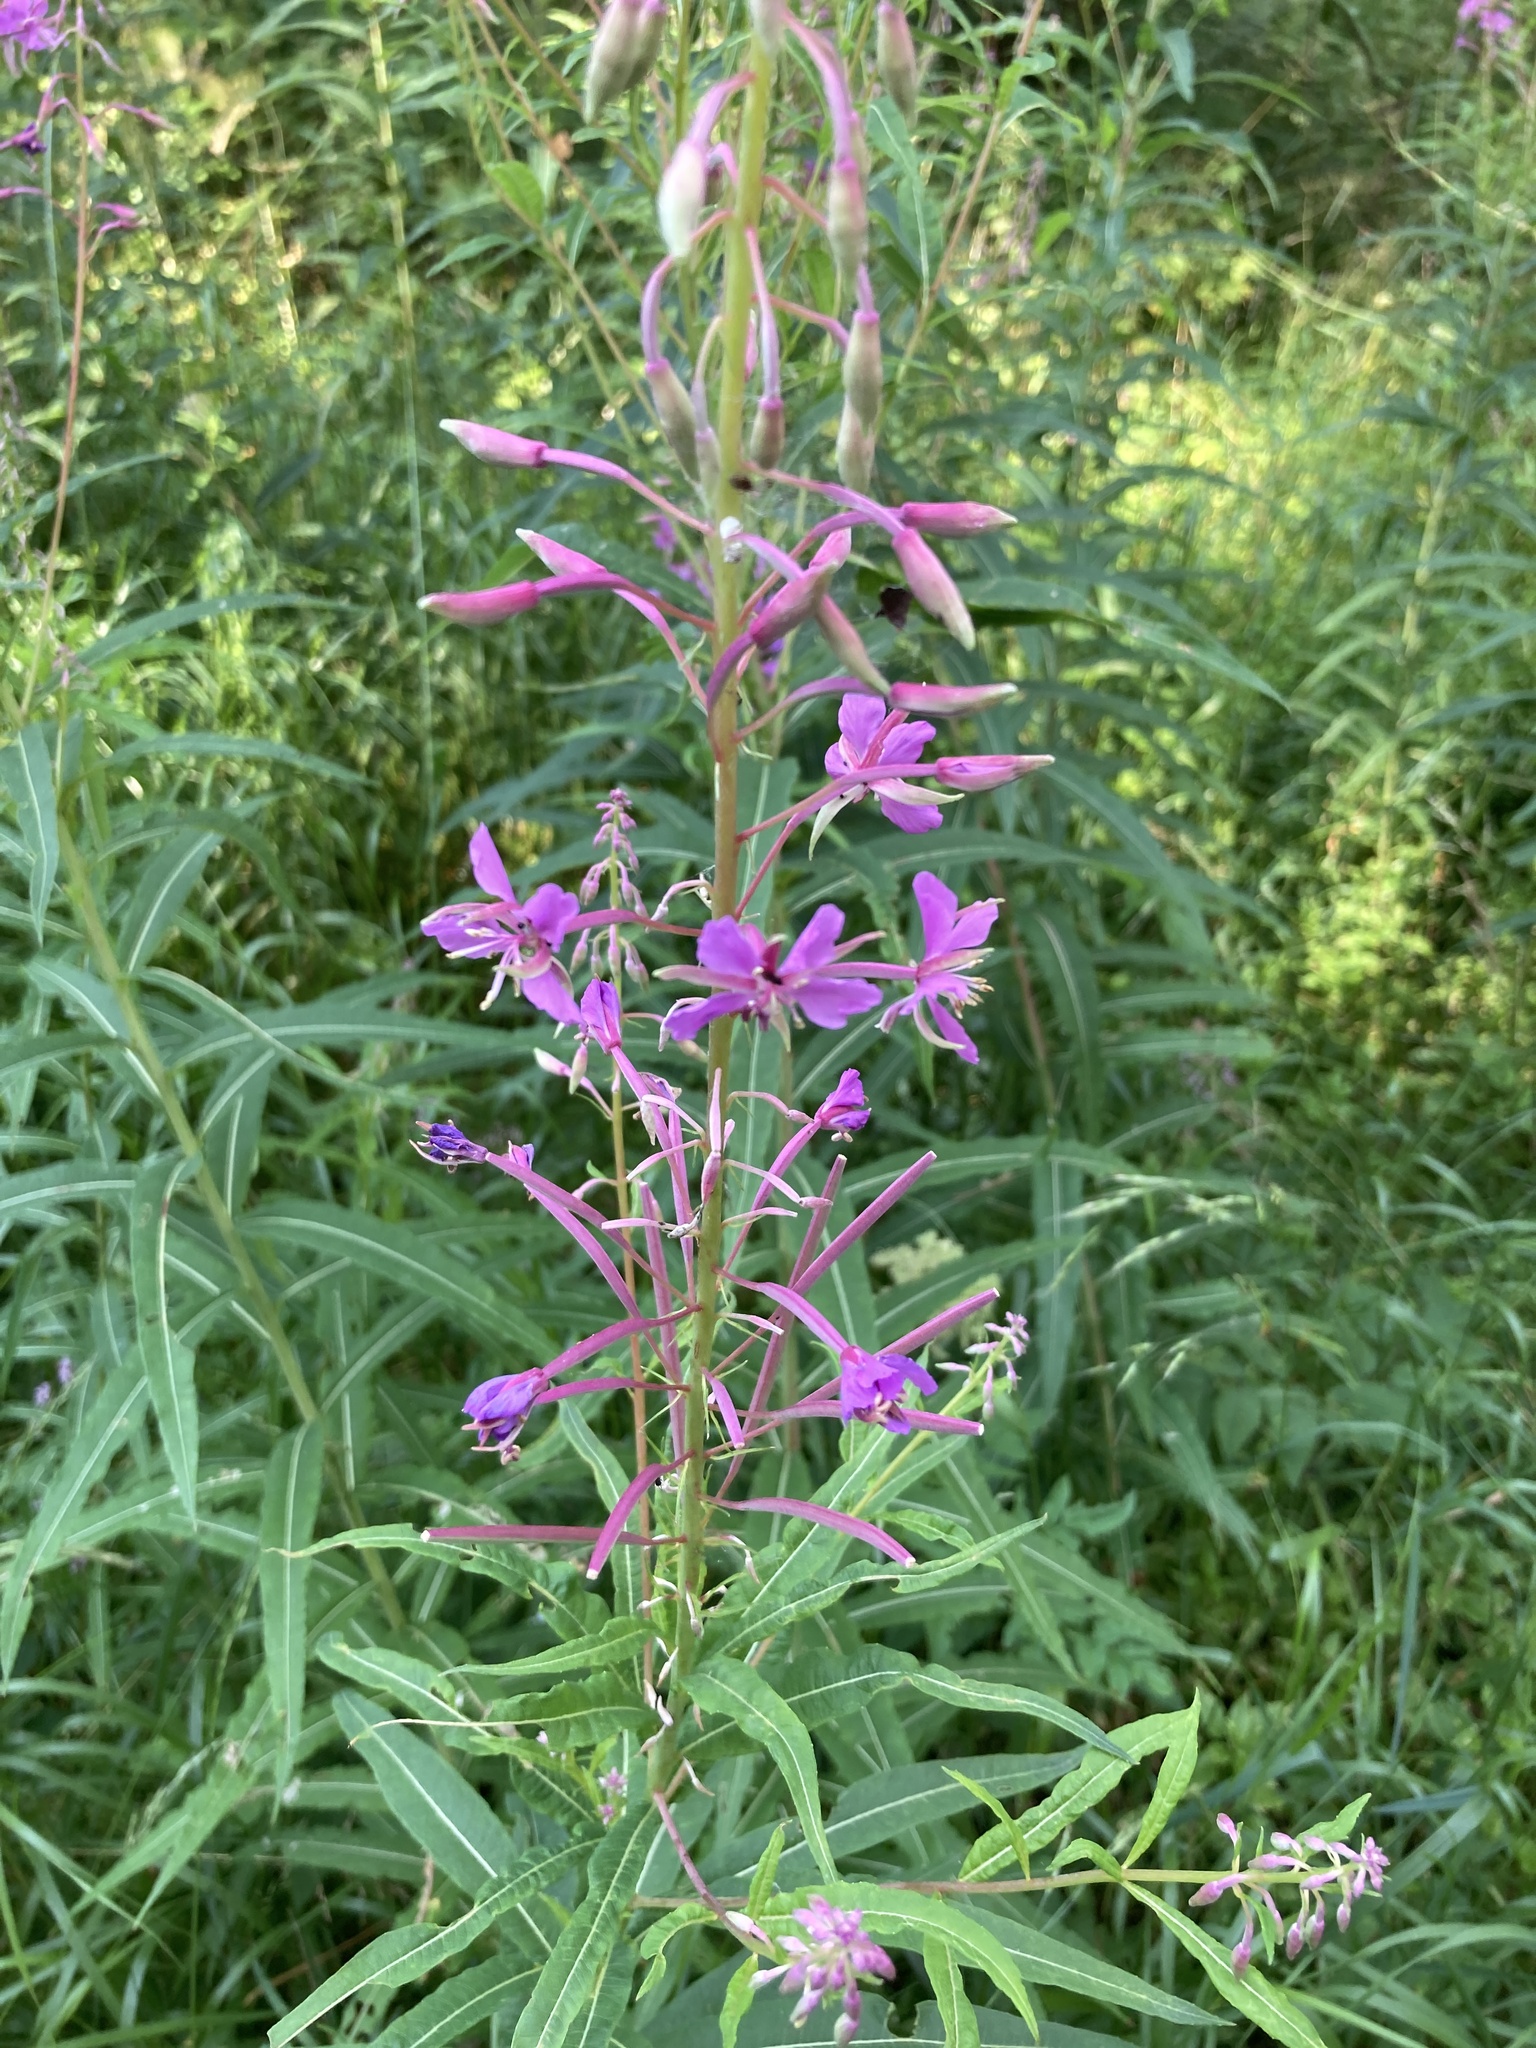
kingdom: Plantae
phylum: Tracheophyta
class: Magnoliopsida
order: Myrtales
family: Onagraceae
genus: Chamaenerion
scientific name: Chamaenerion angustifolium
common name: Fireweed
